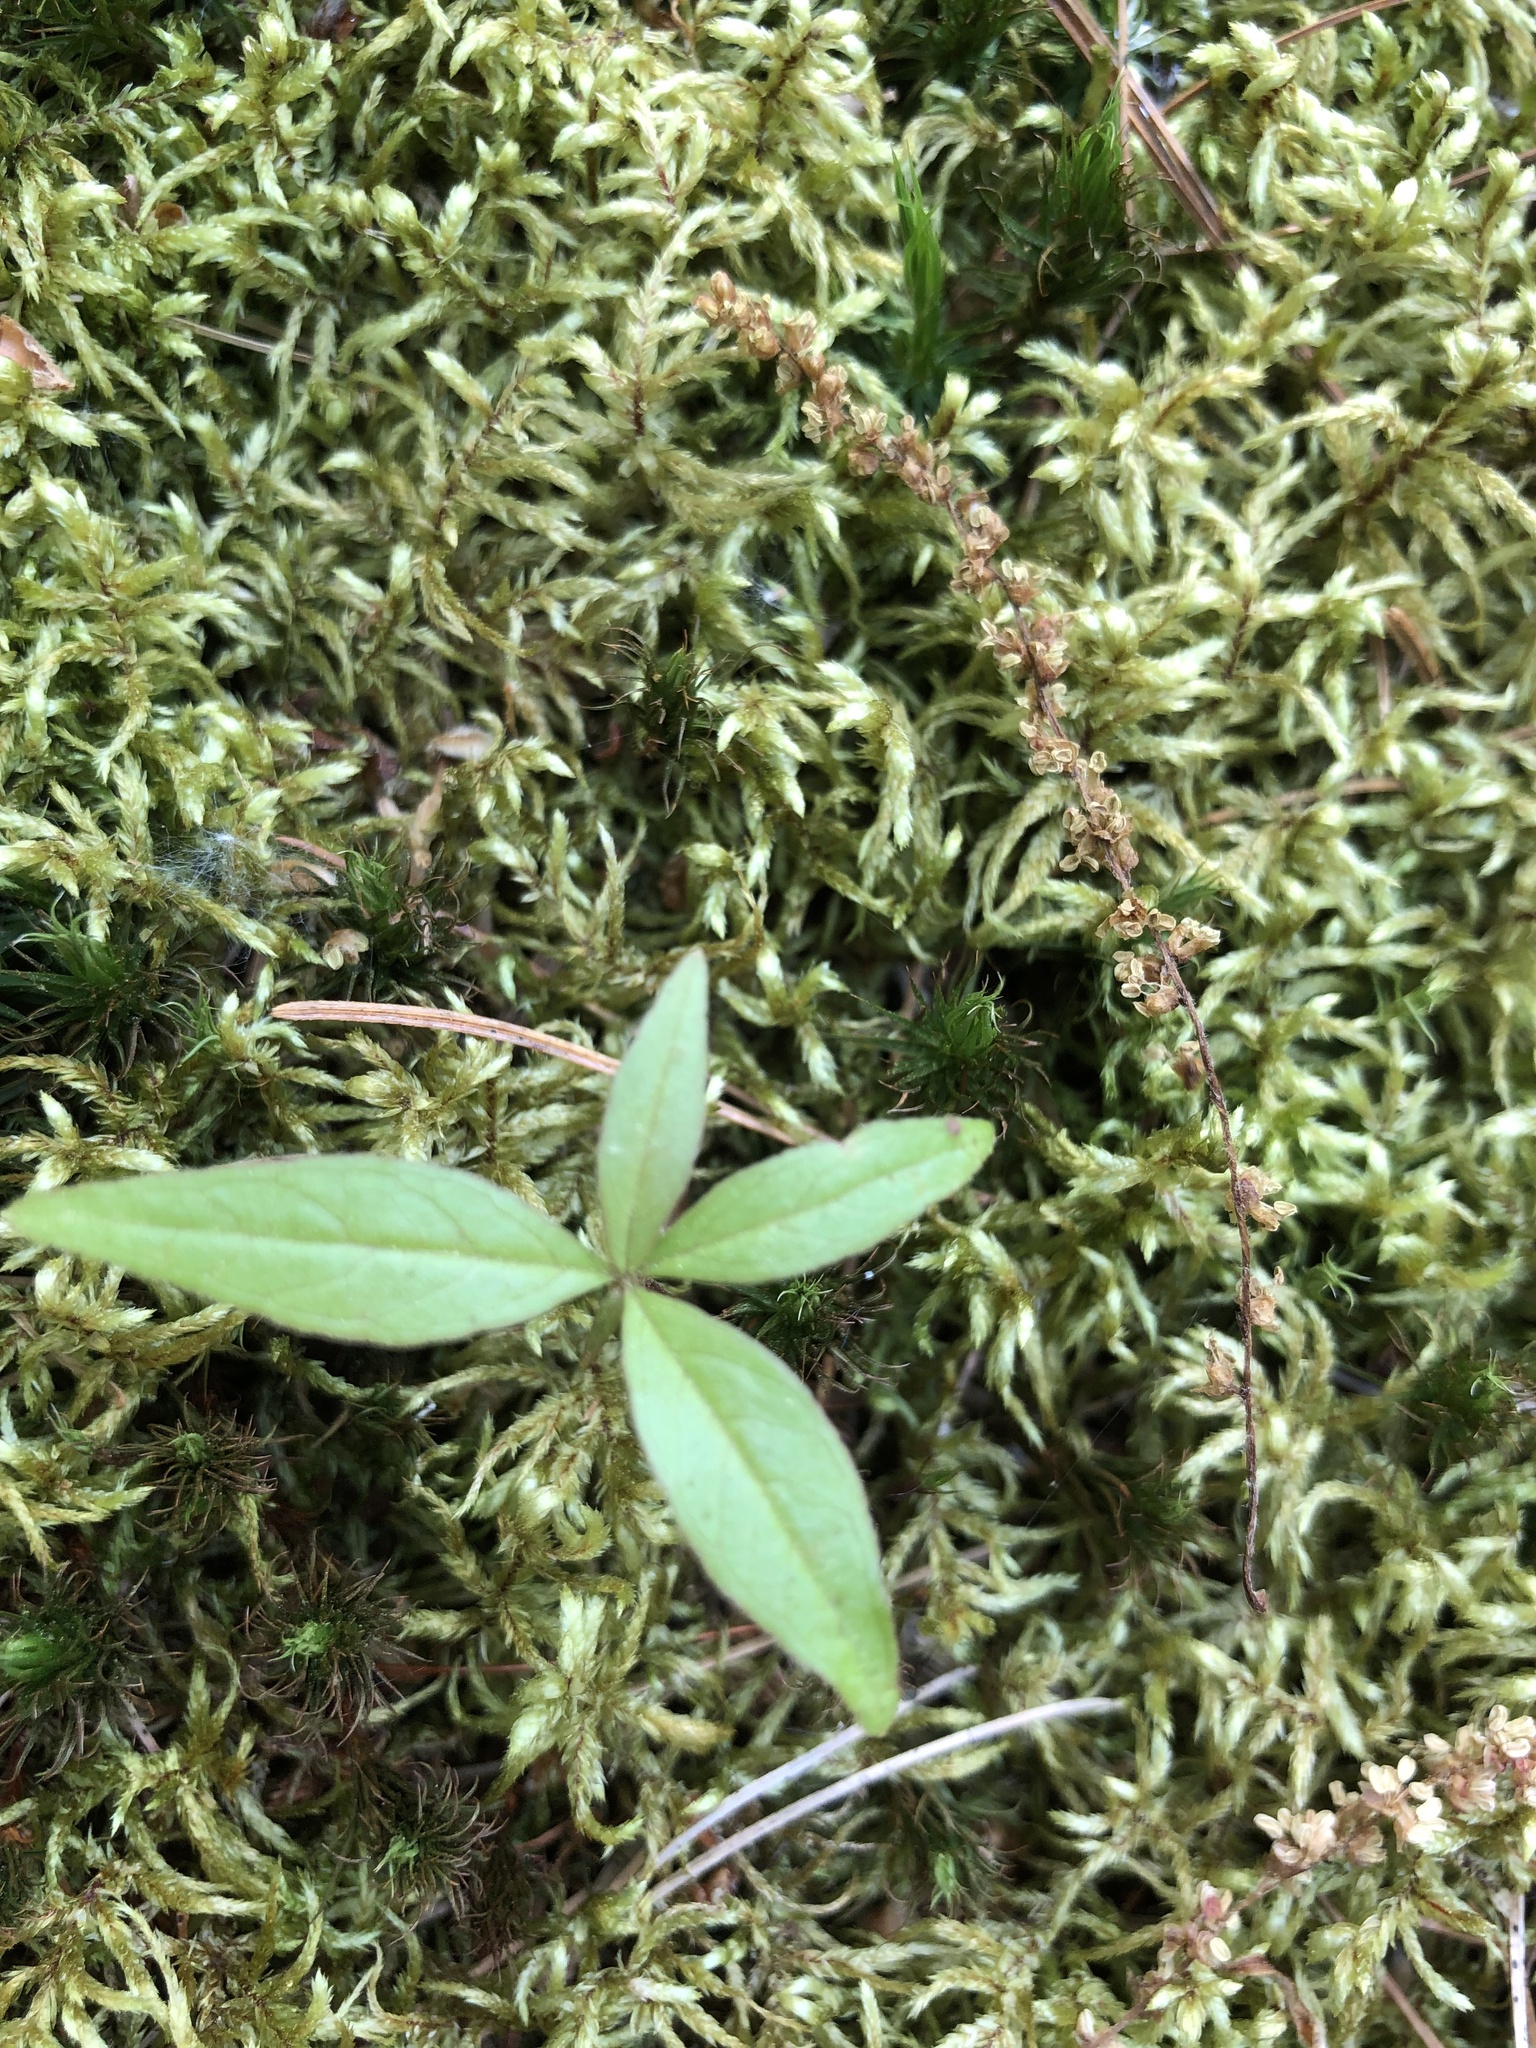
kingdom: Plantae
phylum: Tracheophyta
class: Magnoliopsida
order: Ericales
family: Primulaceae
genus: Lysimachia
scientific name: Lysimachia borealis
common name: American starflower
